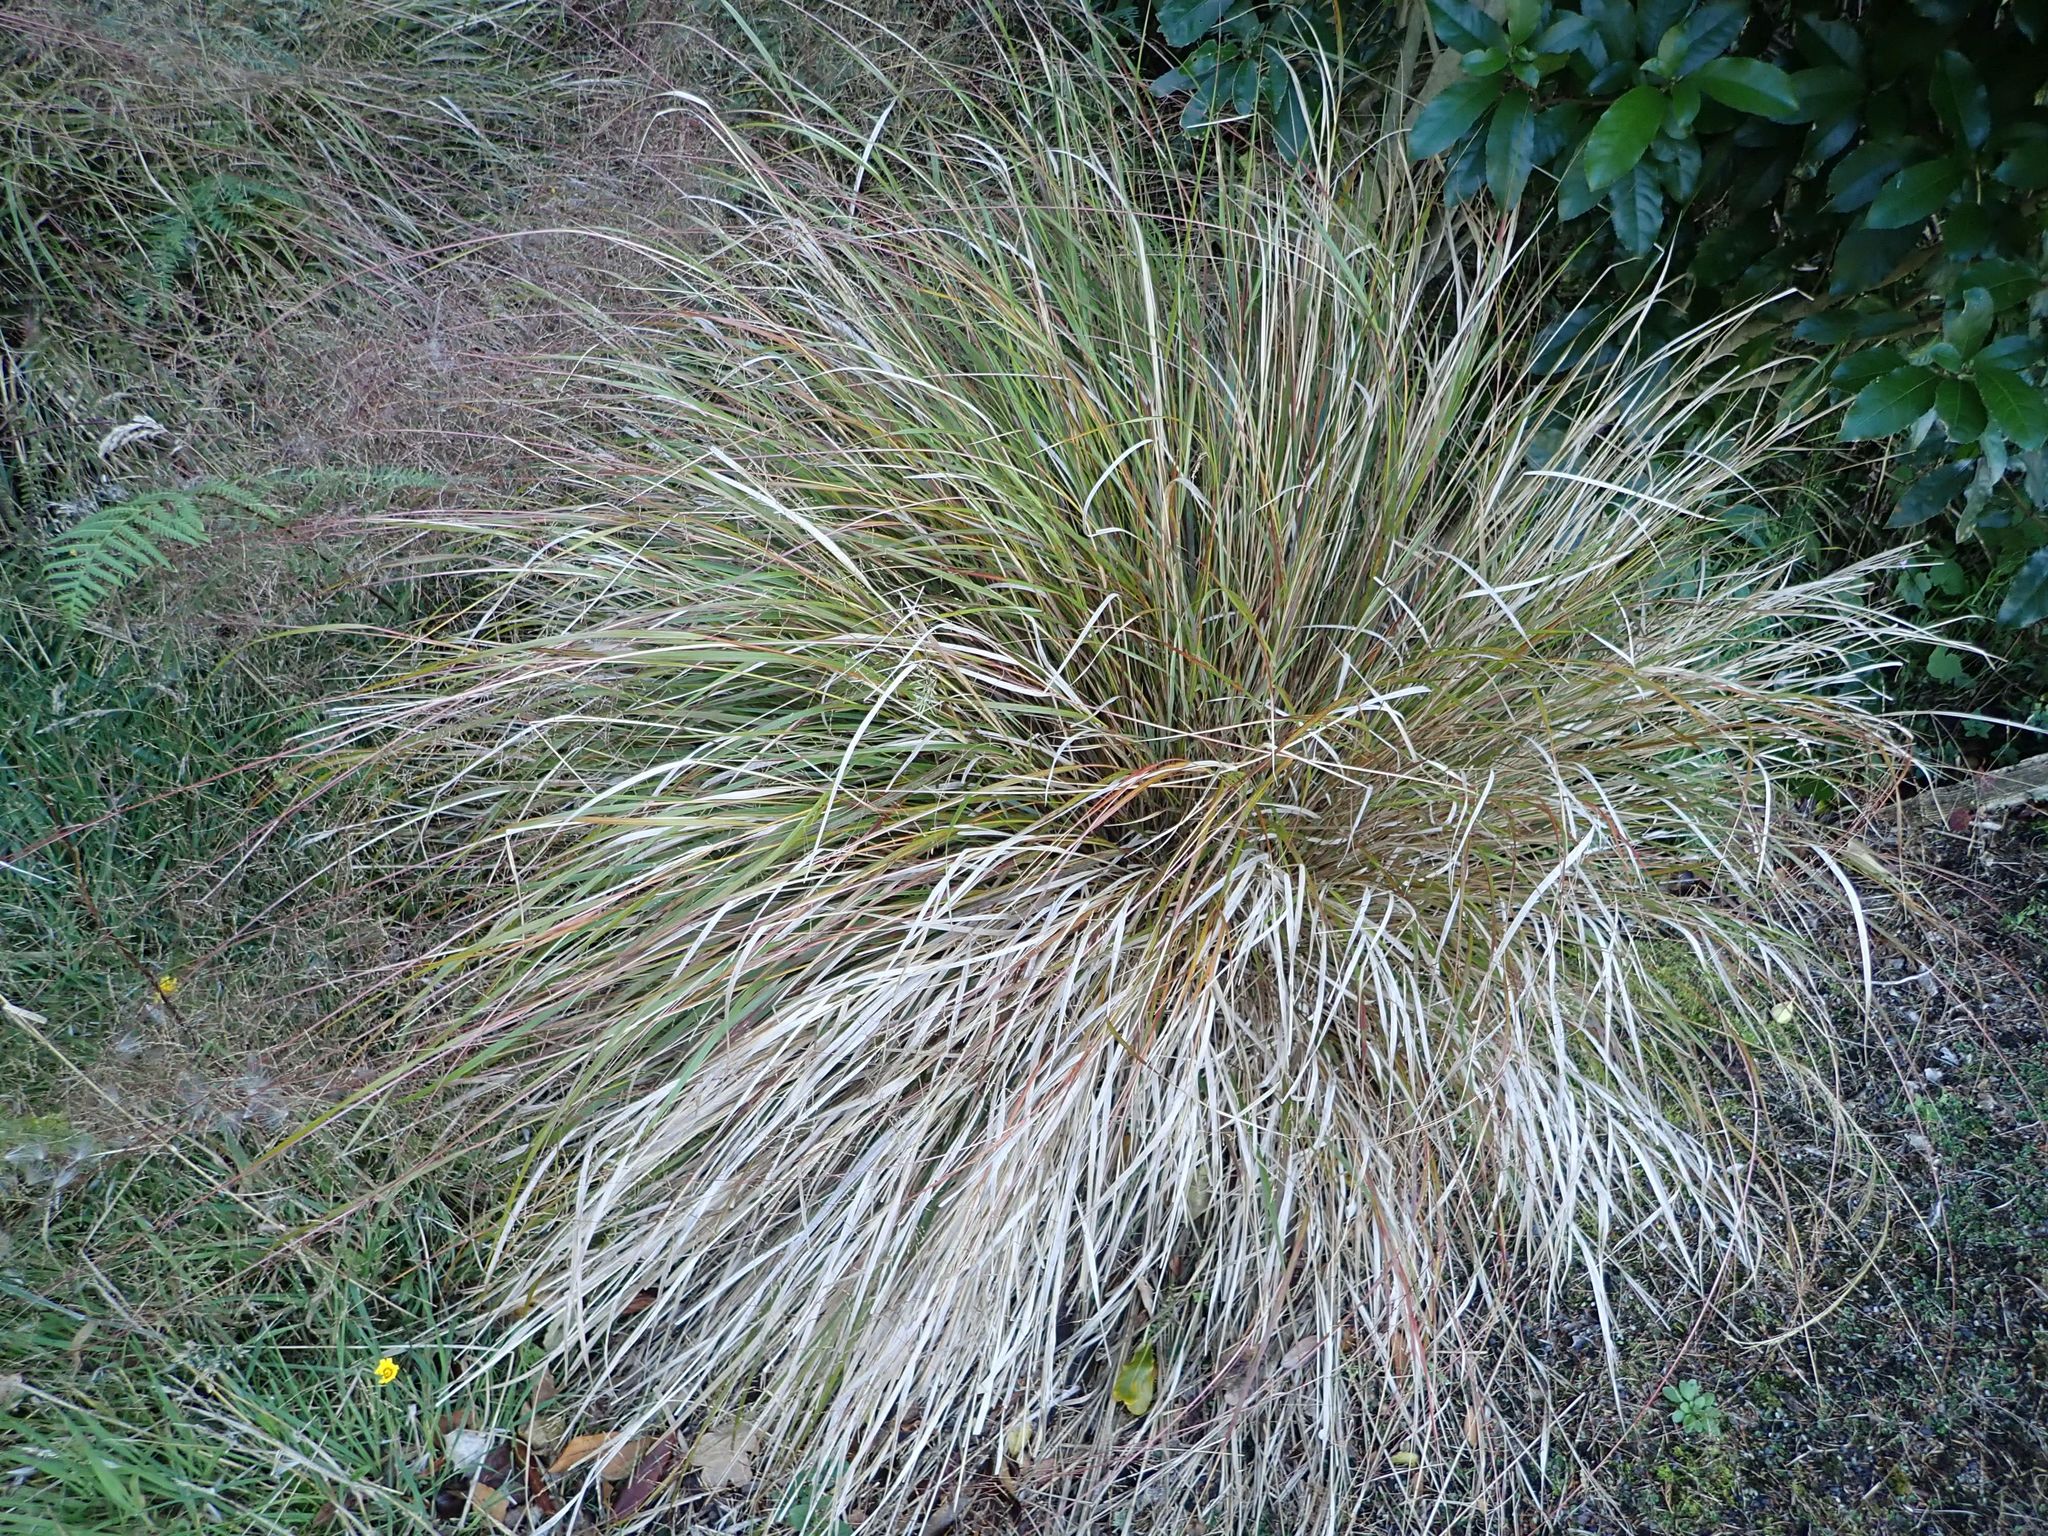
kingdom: Plantae
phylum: Tracheophyta
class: Liliopsida
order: Poales
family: Poaceae
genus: Anemanthele
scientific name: Anemanthele lessoniana
